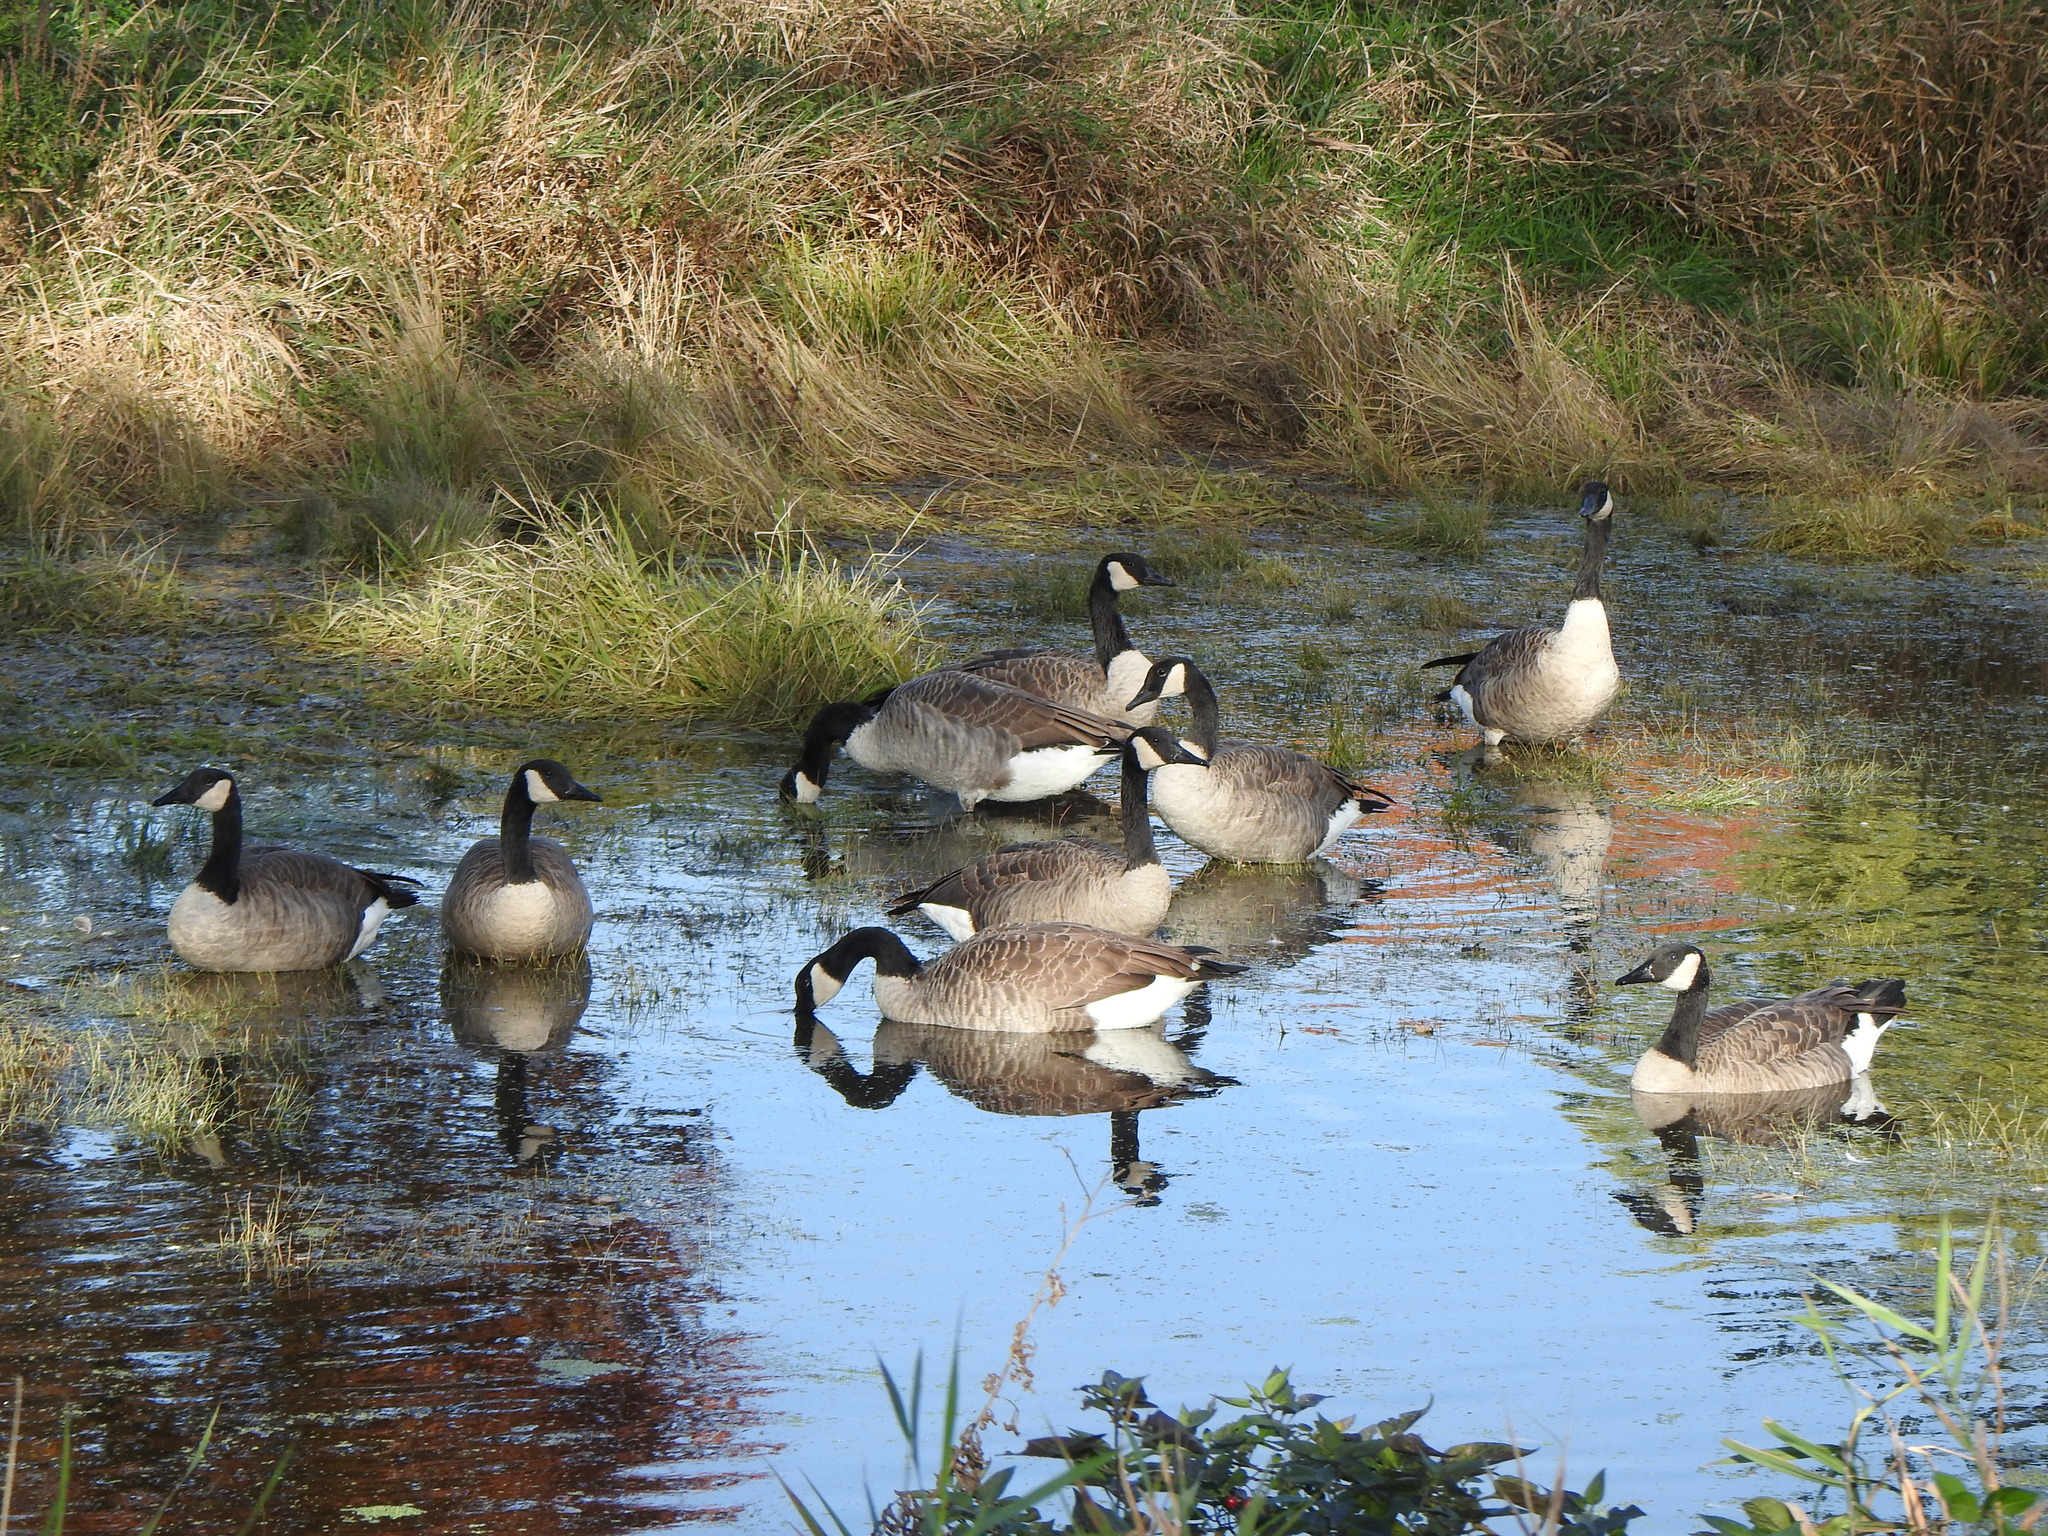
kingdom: Animalia
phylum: Chordata
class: Aves
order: Anseriformes
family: Anatidae
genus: Branta
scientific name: Branta canadensis
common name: Canada goose
